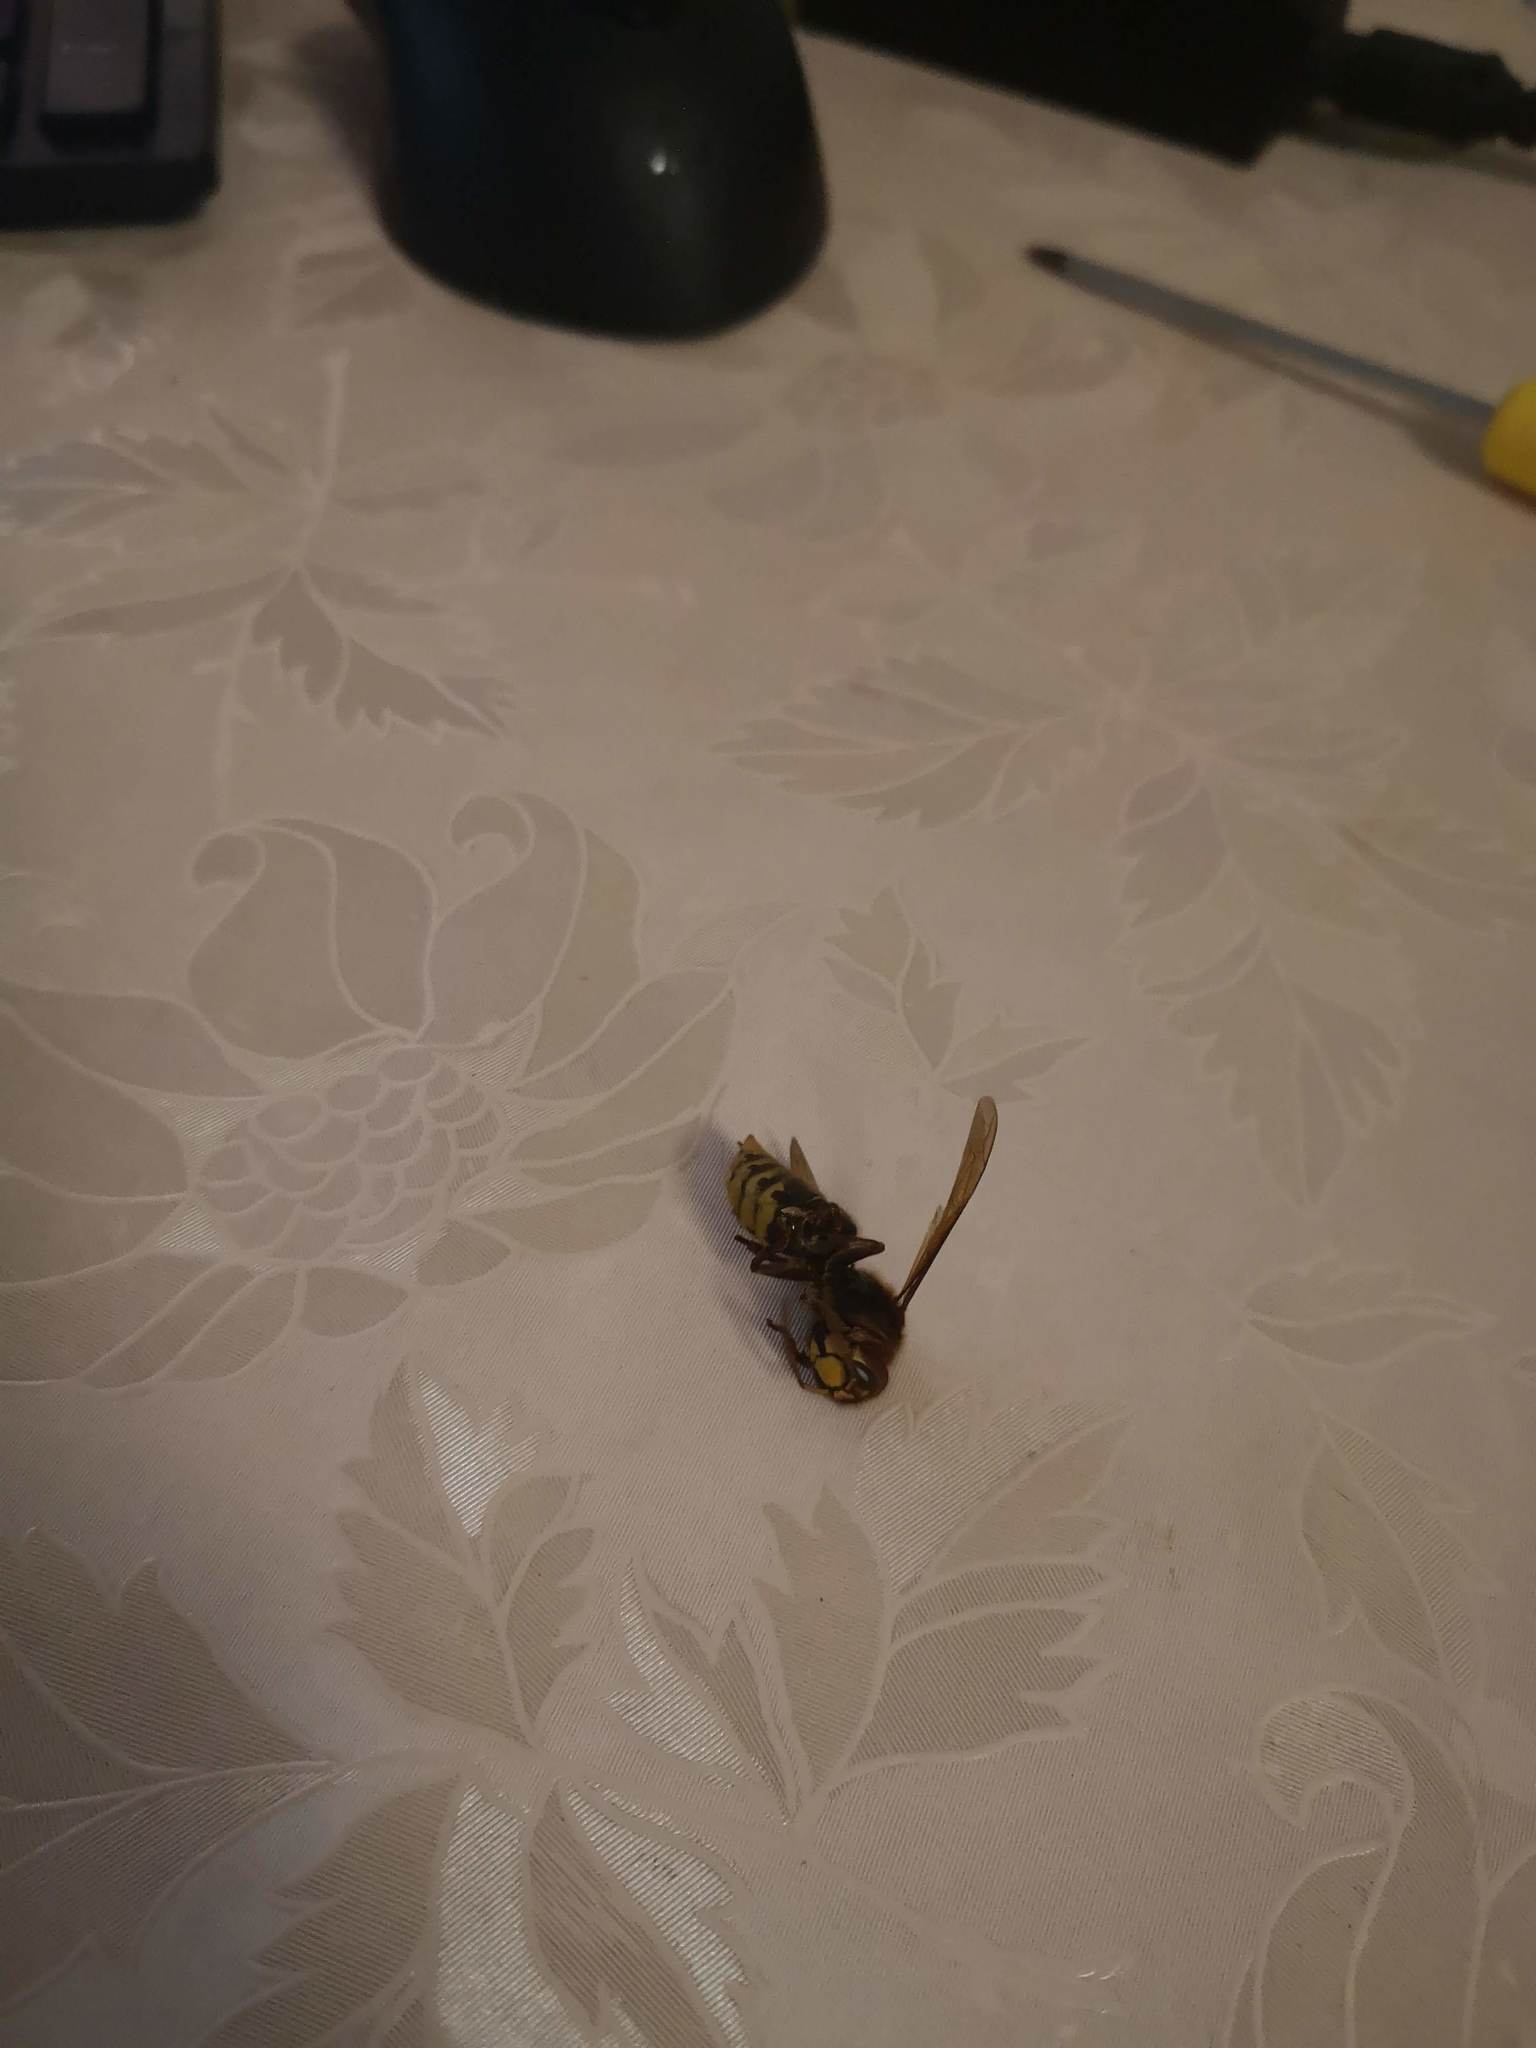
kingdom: Animalia
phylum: Arthropoda
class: Insecta
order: Hymenoptera
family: Vespidae
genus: Vespa
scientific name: Vespa crabro
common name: Hornet
